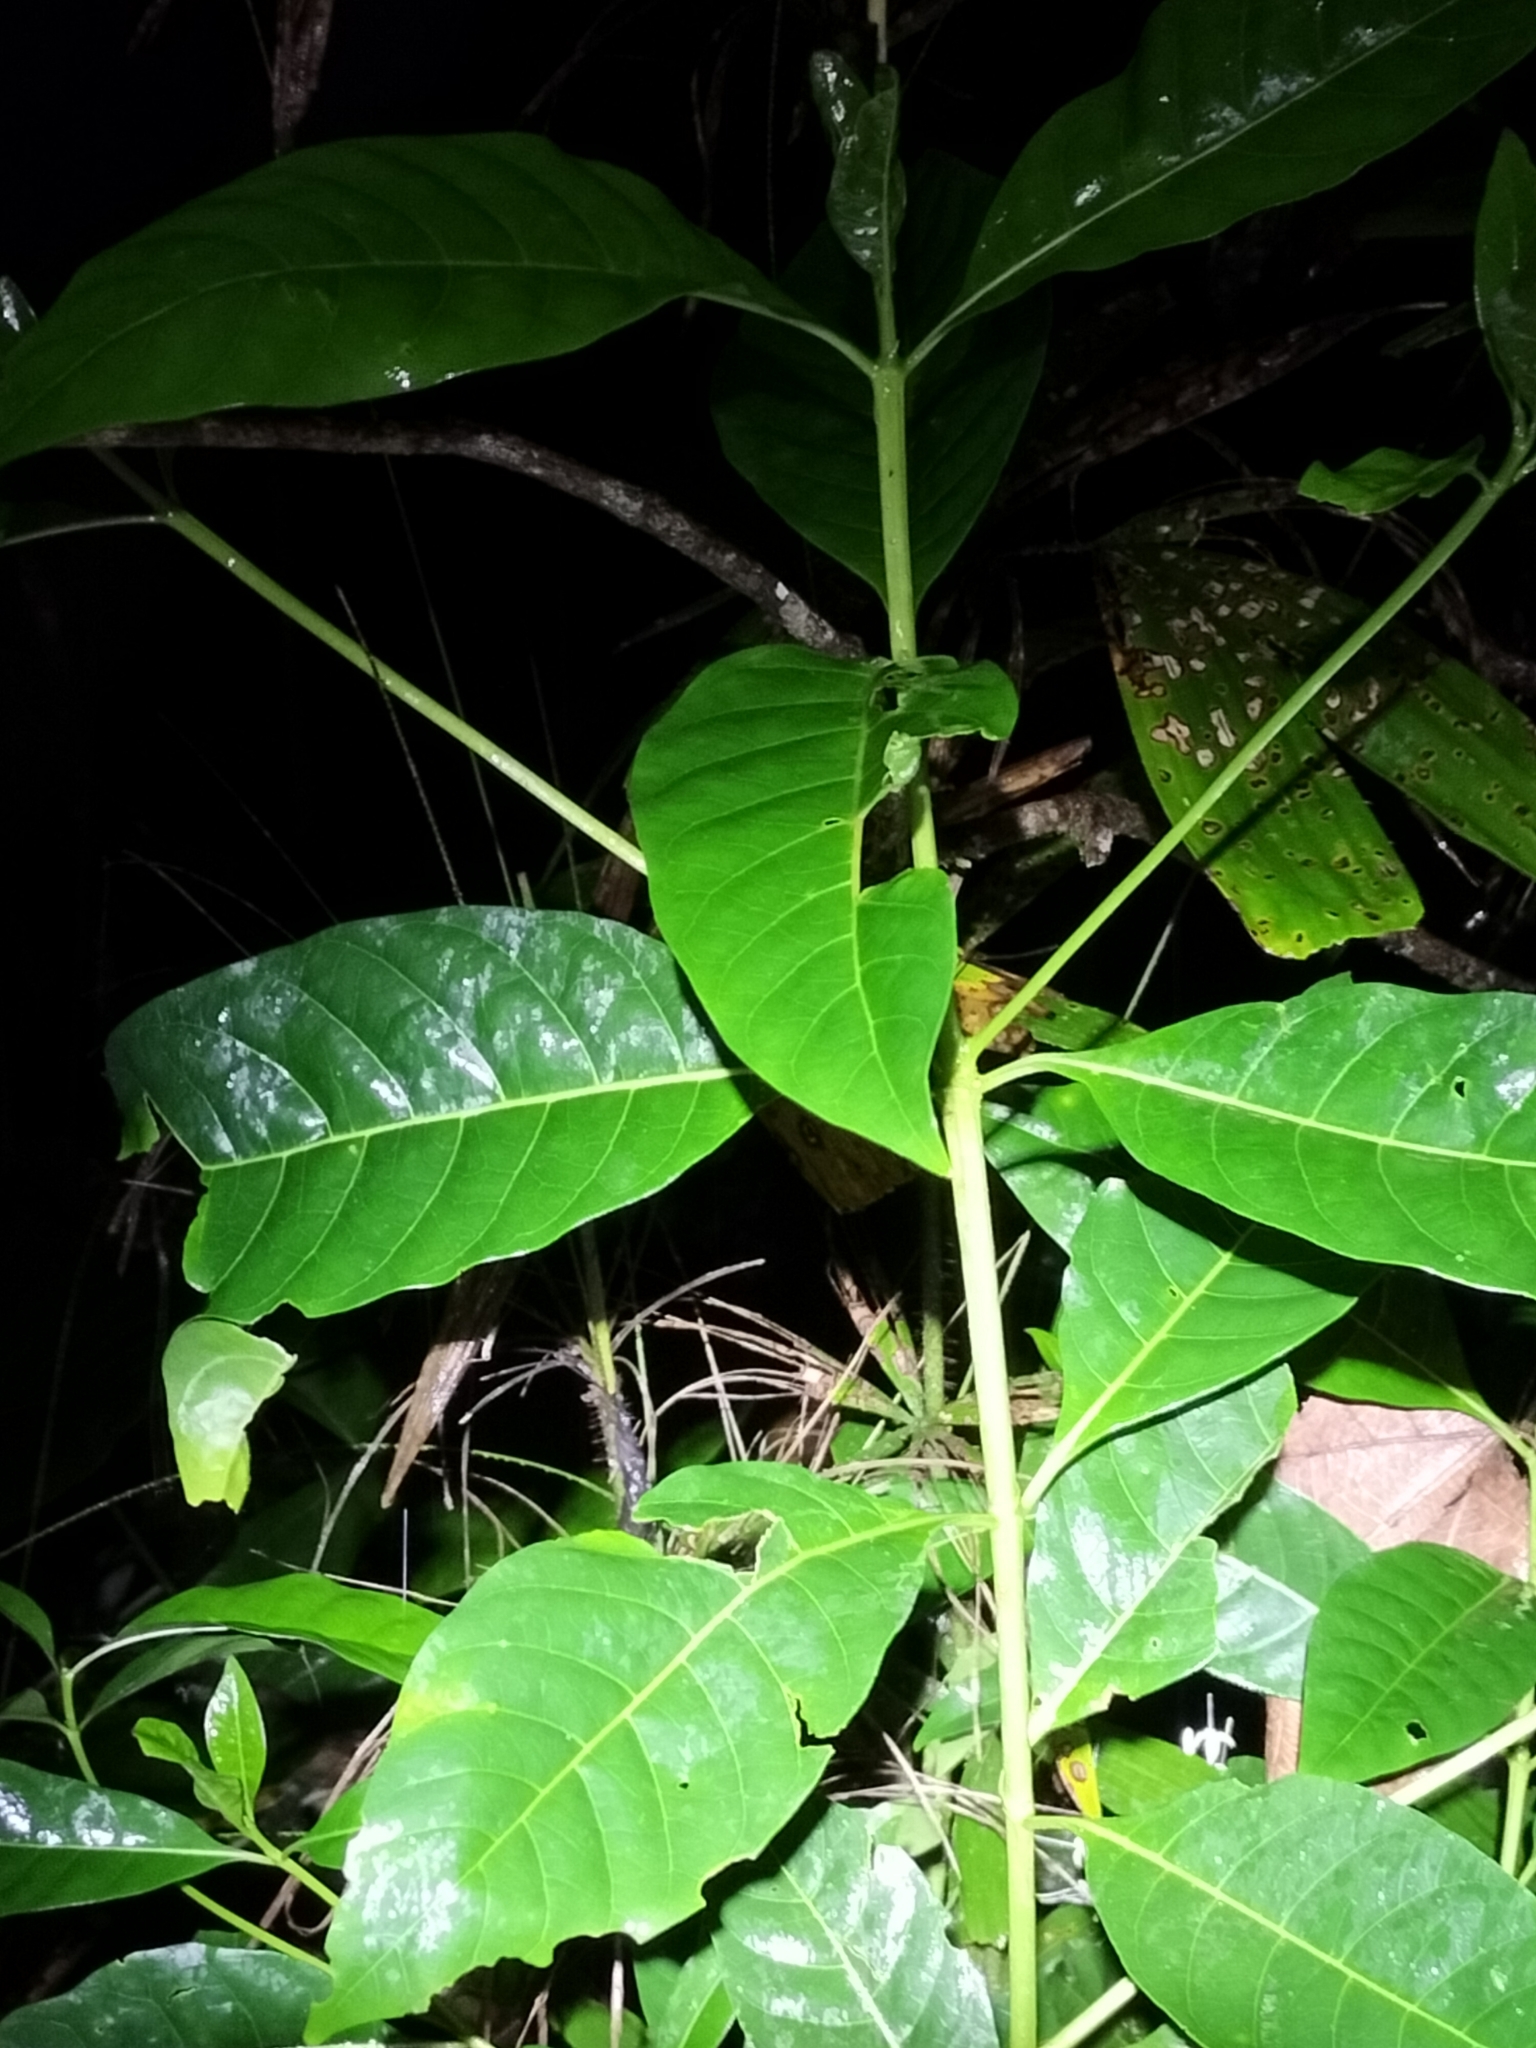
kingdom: Plantae
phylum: Tracheophyta
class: Magnoliopsida
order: Gentianales
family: Rubiaceae
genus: Pavetta
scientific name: Pavetta australiensis
